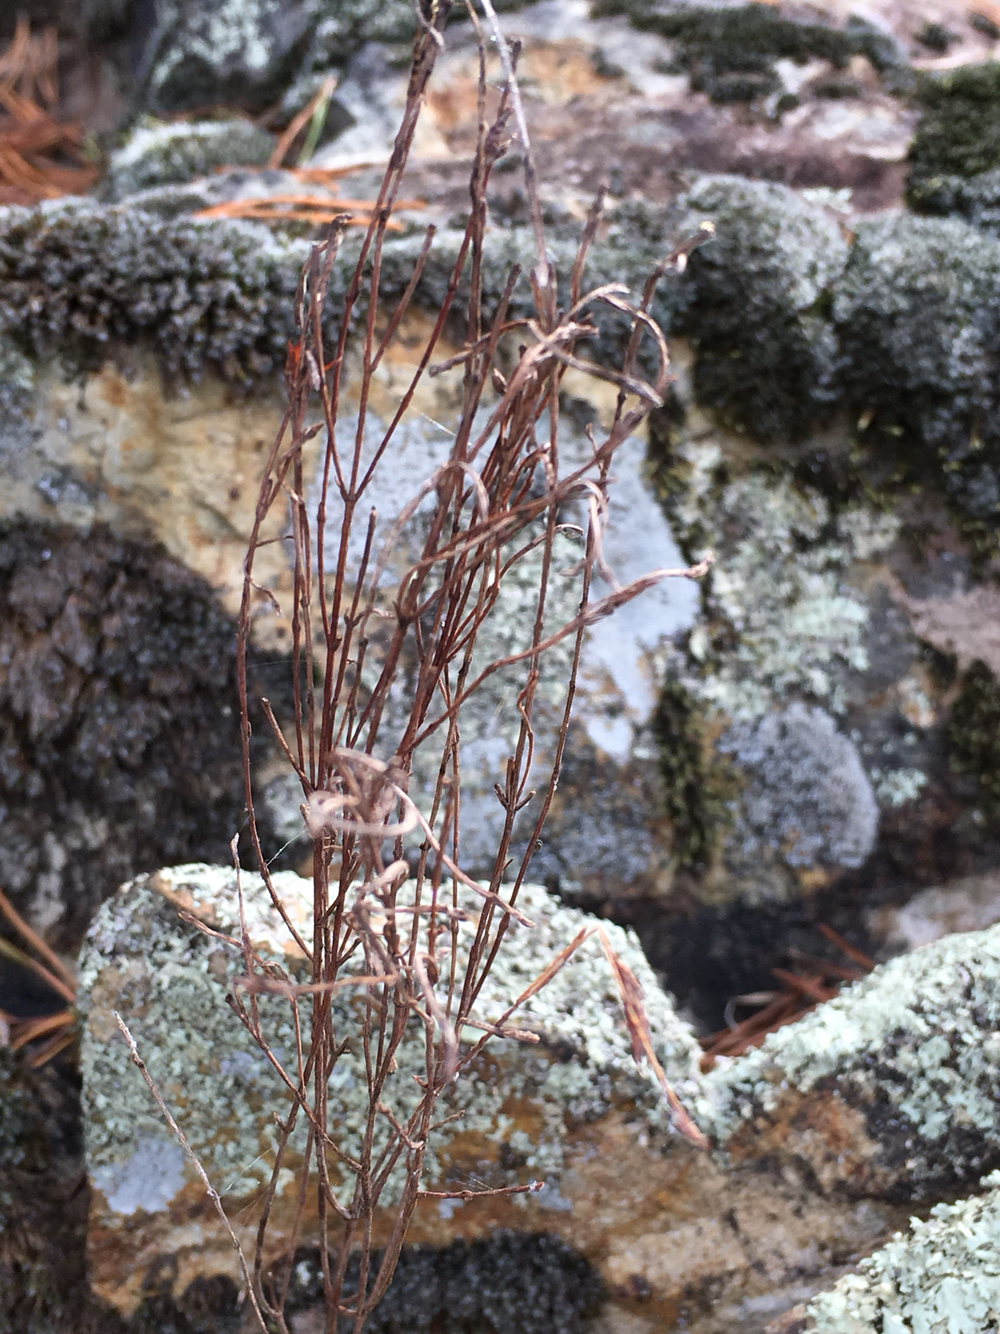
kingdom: Plantae
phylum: Tracheophyta
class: Magnoliopsida
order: Malpighiales
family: Hypericaceae
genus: Hypericum
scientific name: Hypericum gentianoides
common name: Gentian-leaved st. john's-wort
